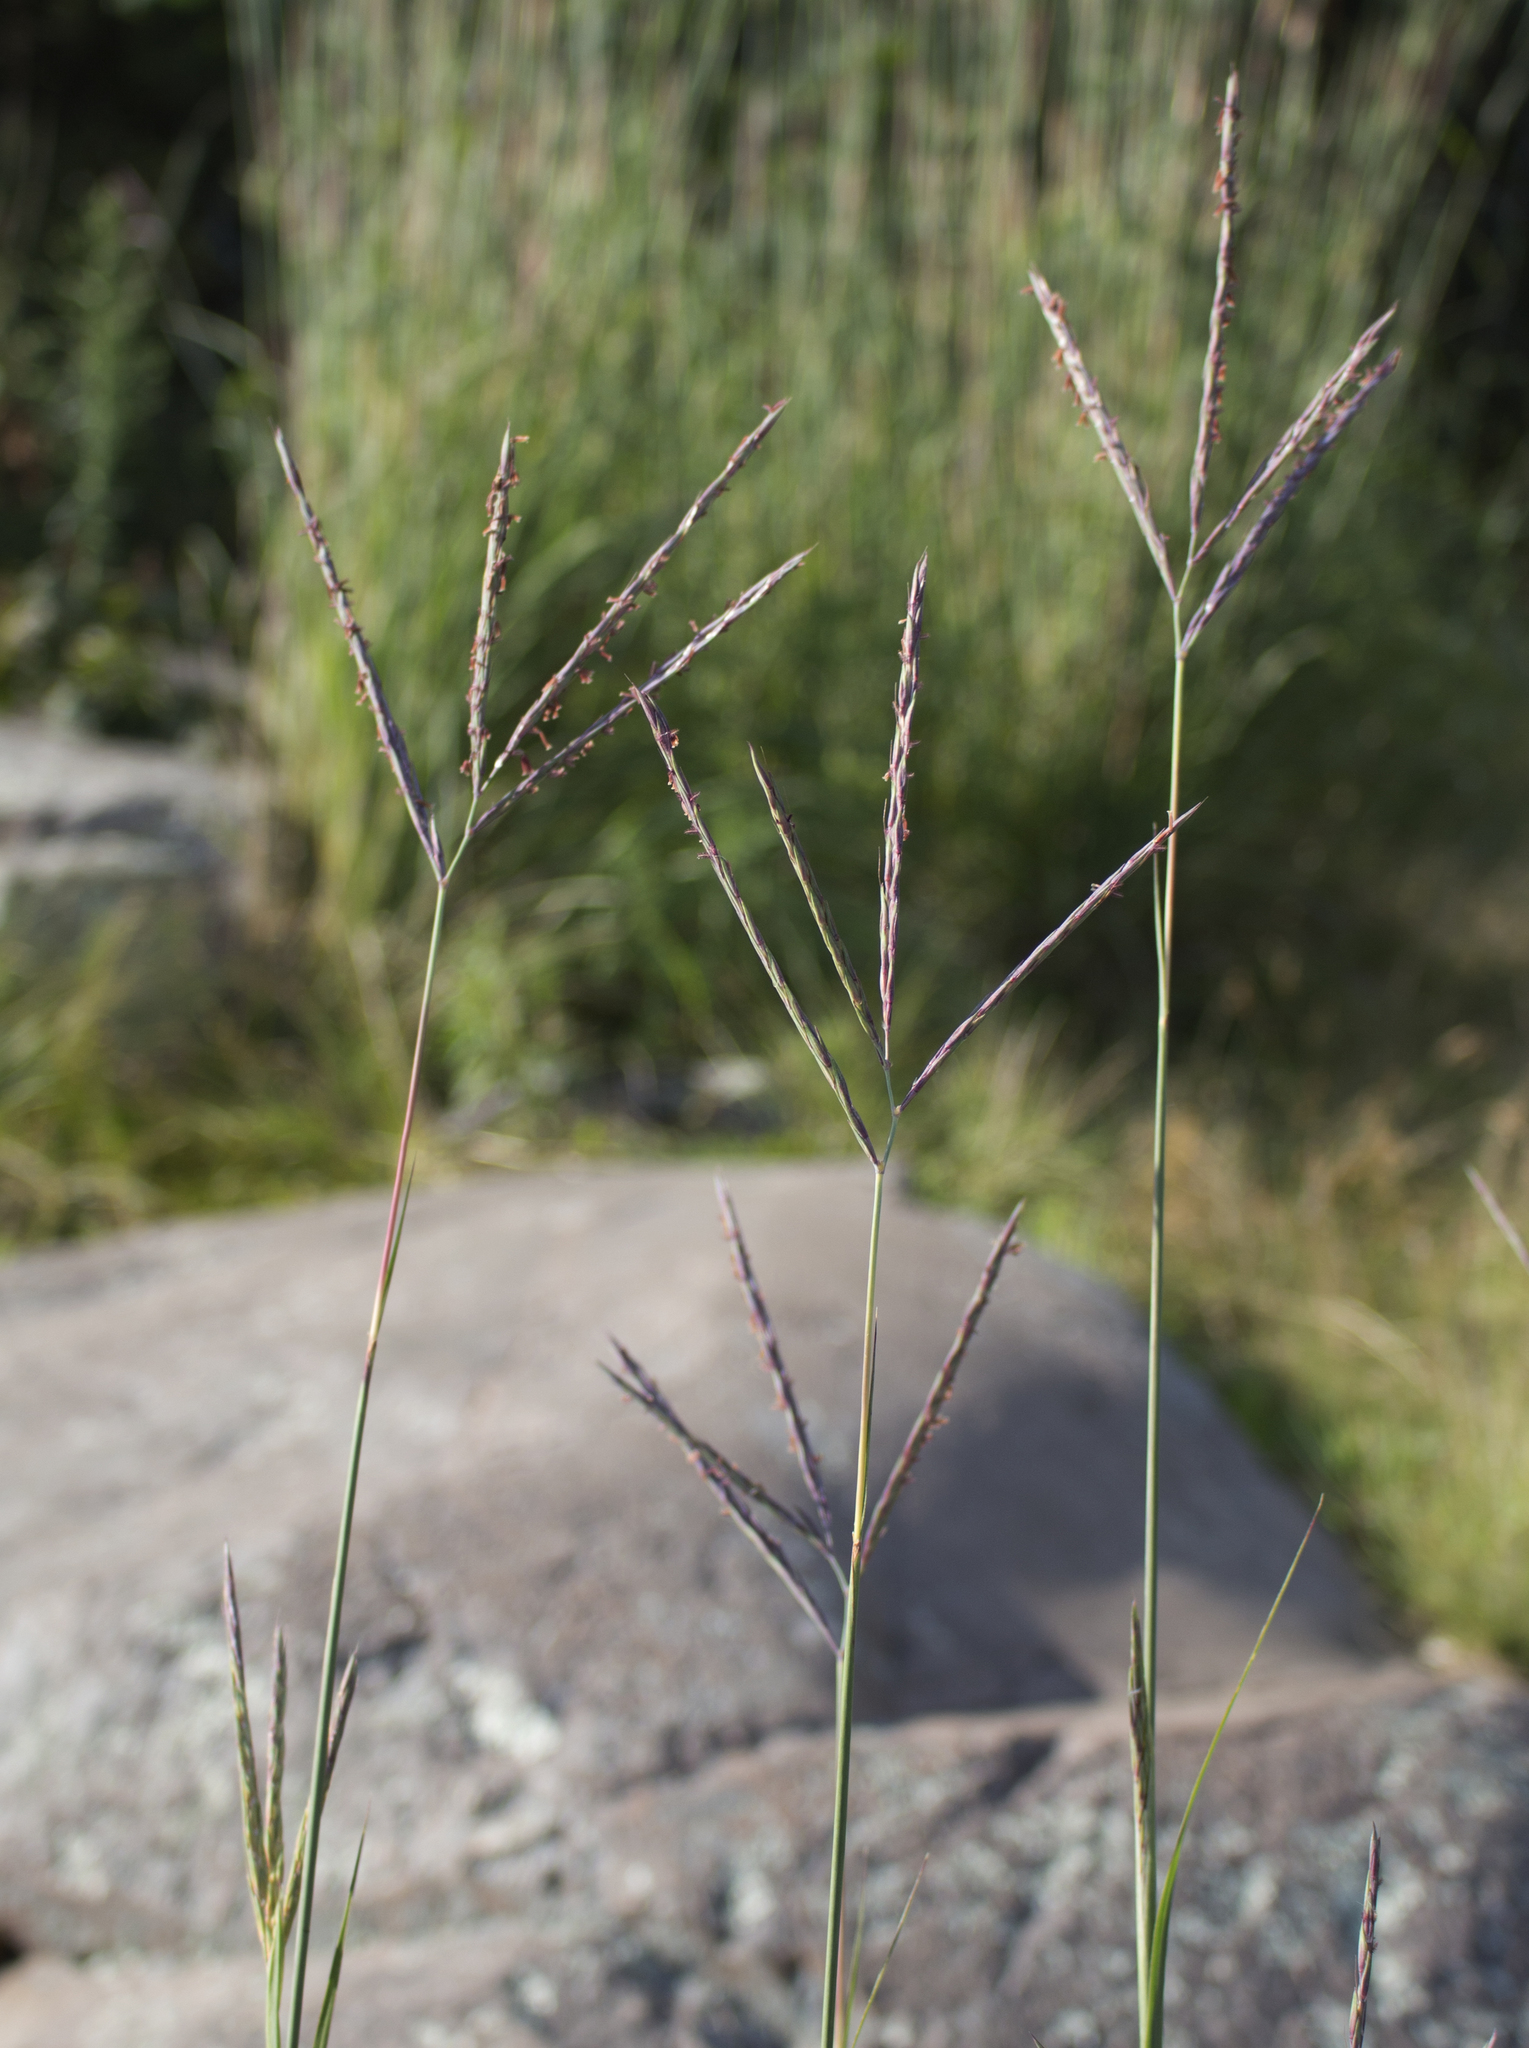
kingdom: Plantae
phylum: Tracheophyta
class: Liliopsida
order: Poales
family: Poaceae
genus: Andropogon
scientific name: Andropogon gerardi
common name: Big bluestem
